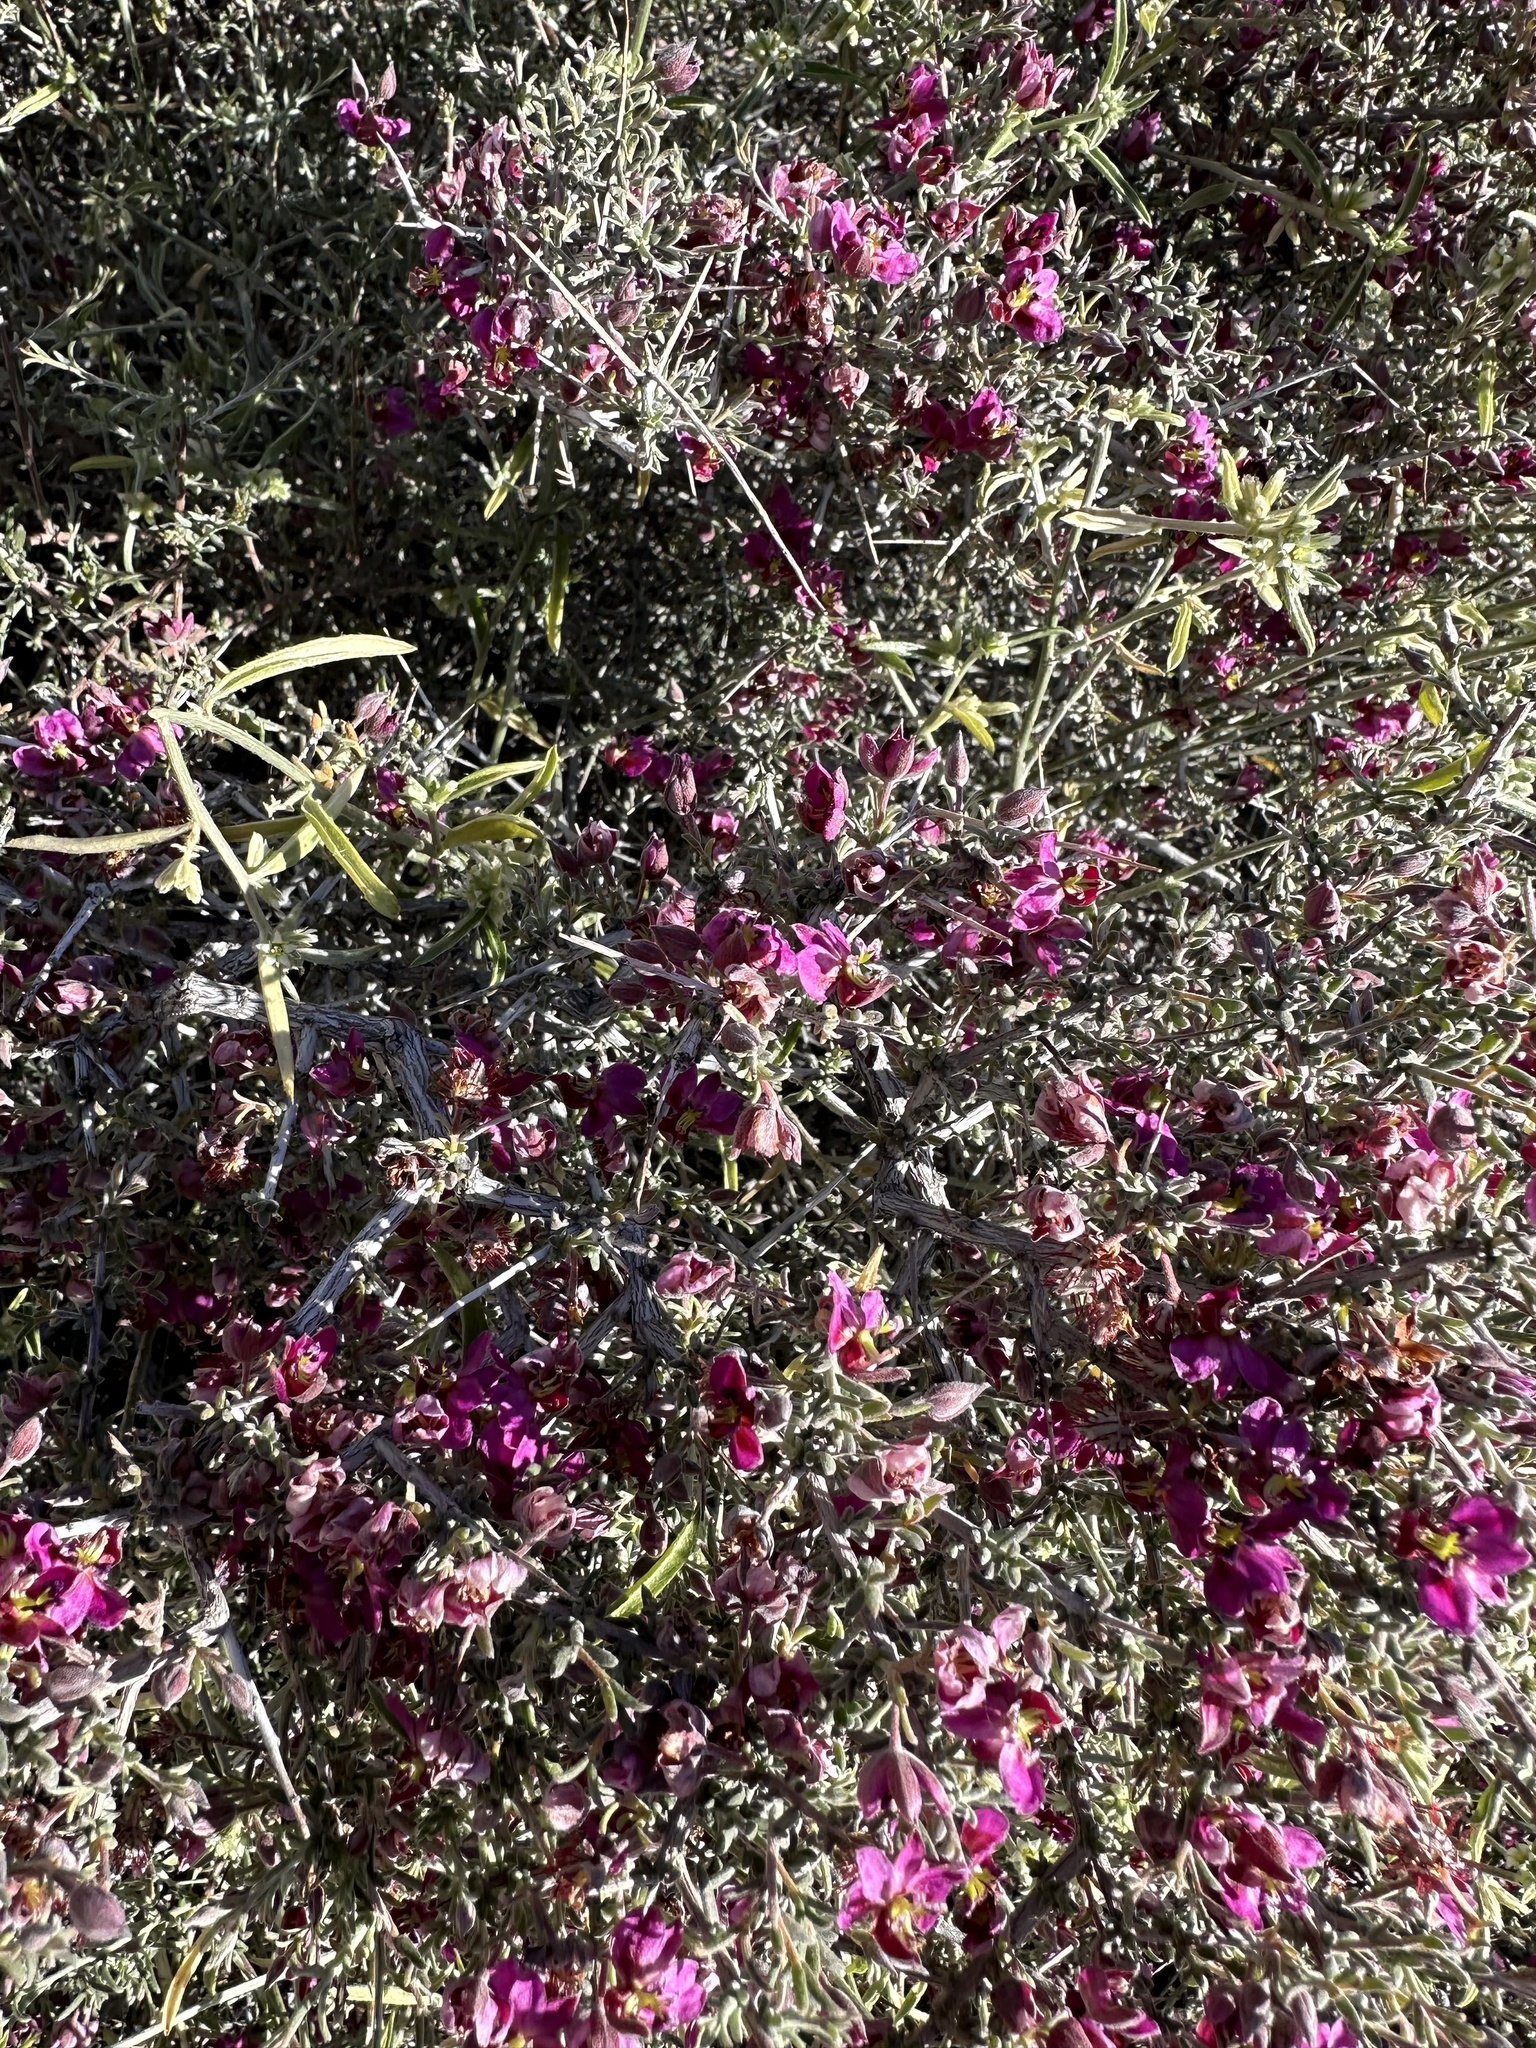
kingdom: Plantae
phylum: Tracheophyta
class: Magnoliopsida
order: Zygophyllales
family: Krameriaceae
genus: Krameria
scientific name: Krameria erecta
